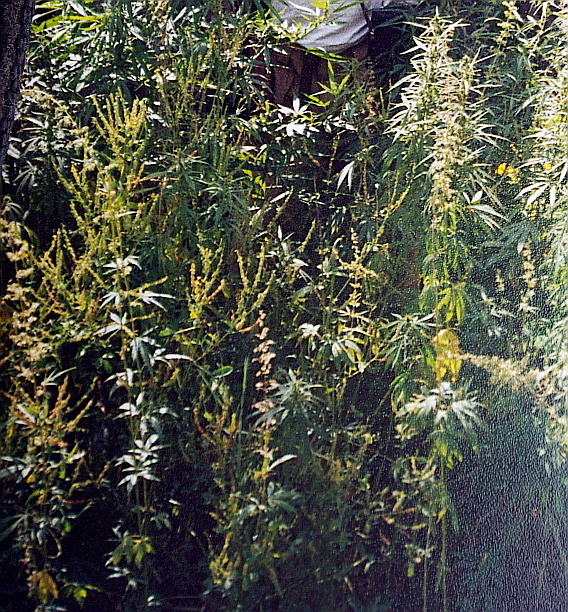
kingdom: Plantae
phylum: Tracheophyta
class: Magnoliopsida
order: Rosales
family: Cannabaceae
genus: Cannabis
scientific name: Cannabis sativa
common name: Hemp
